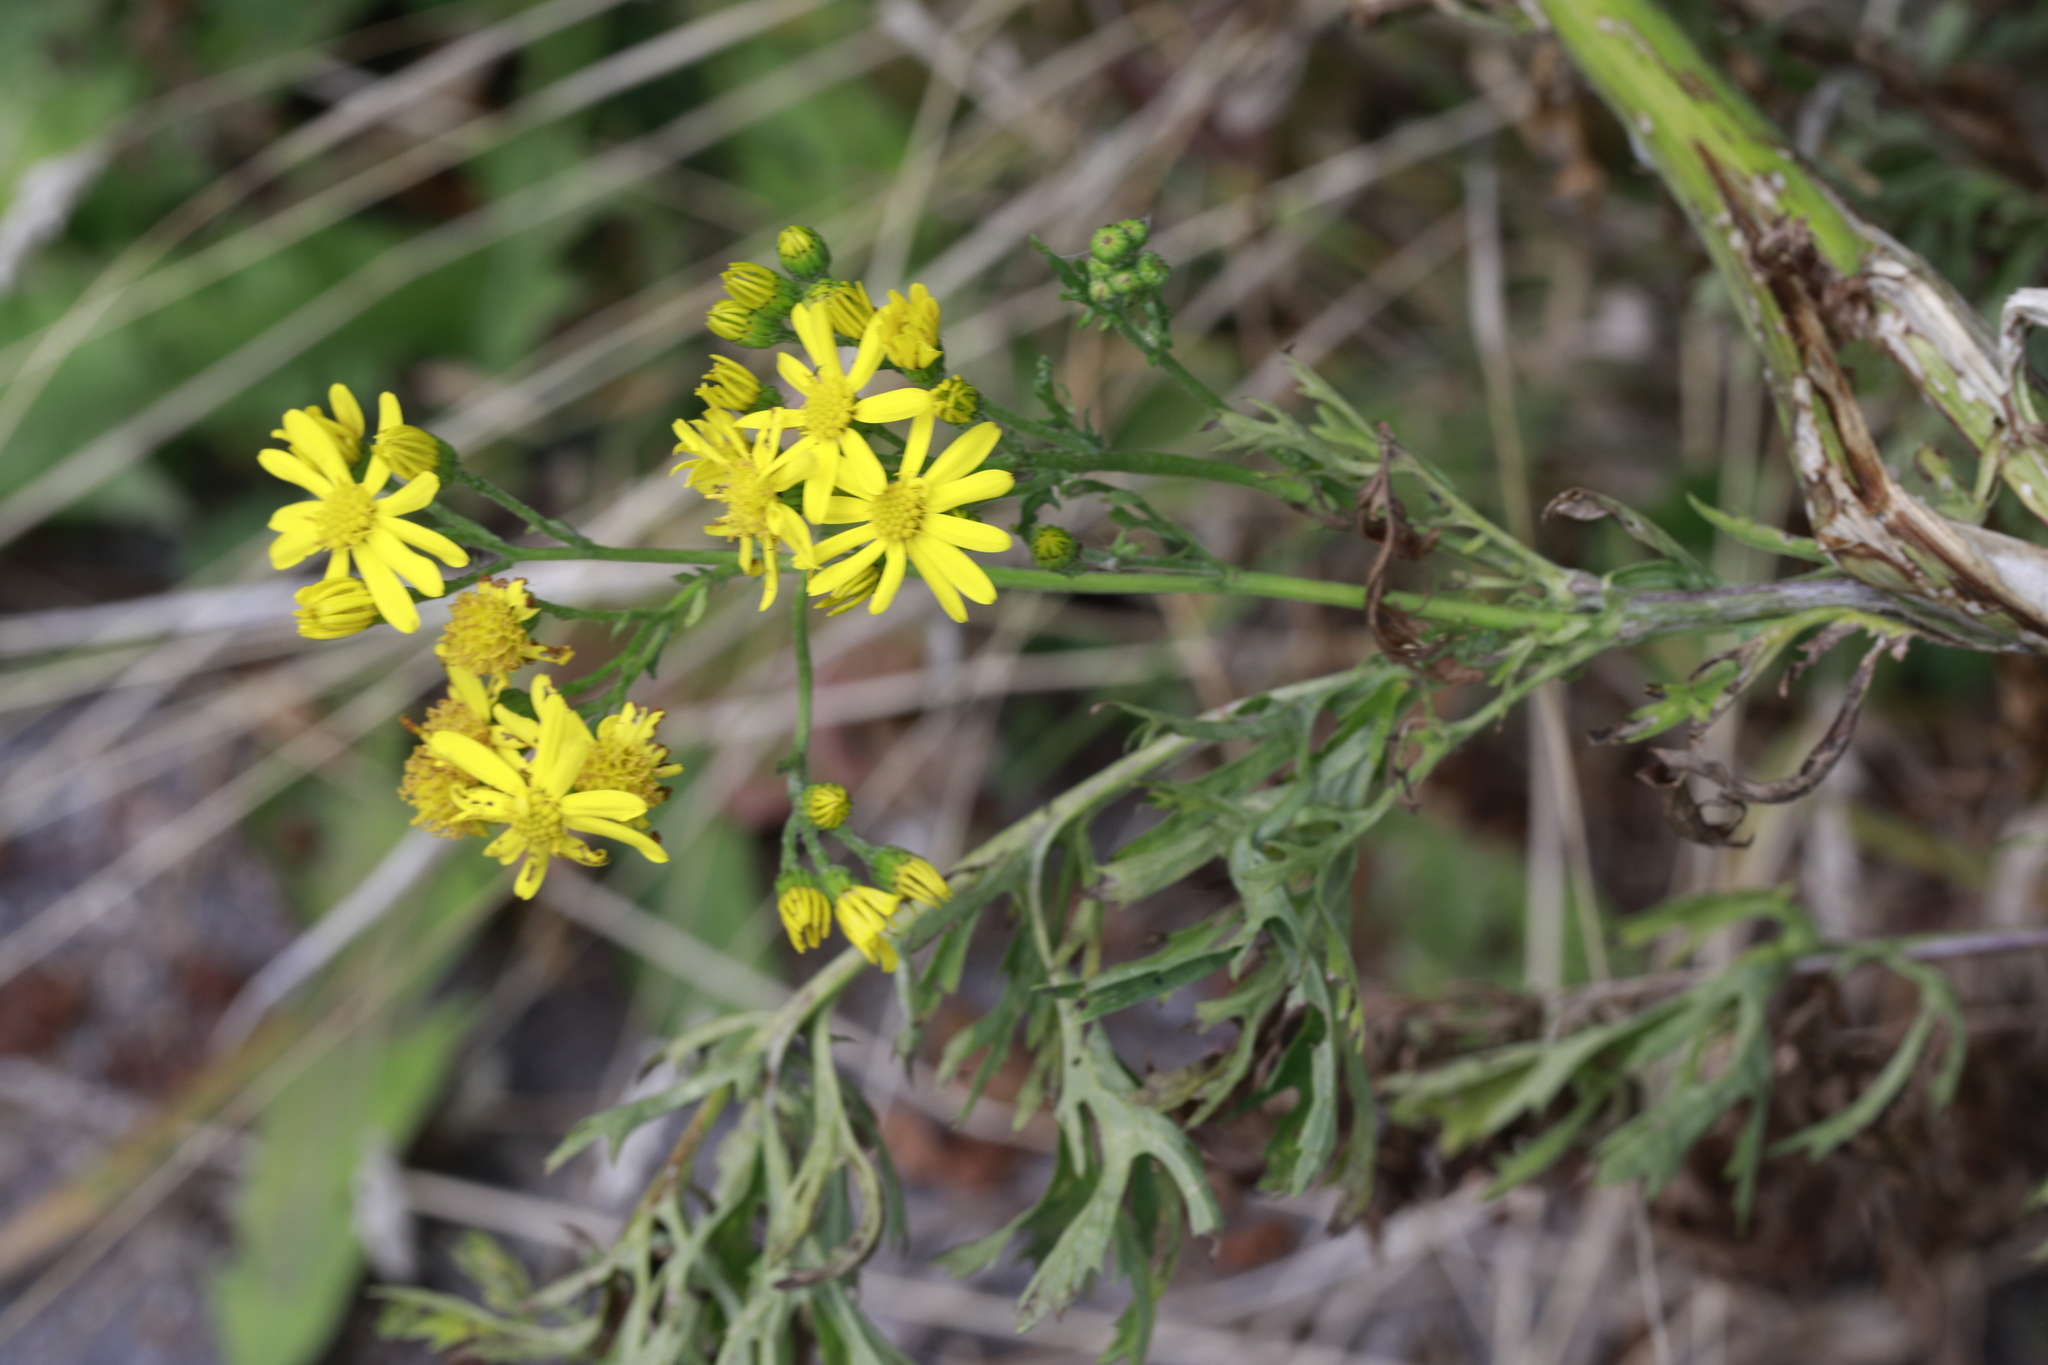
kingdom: Plantae
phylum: Tracheophyta
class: Magnoliopsida
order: Asterales
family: Asteraceae
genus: Jacobaea
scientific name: Jacobaea vulgaris
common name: Stinking willie
